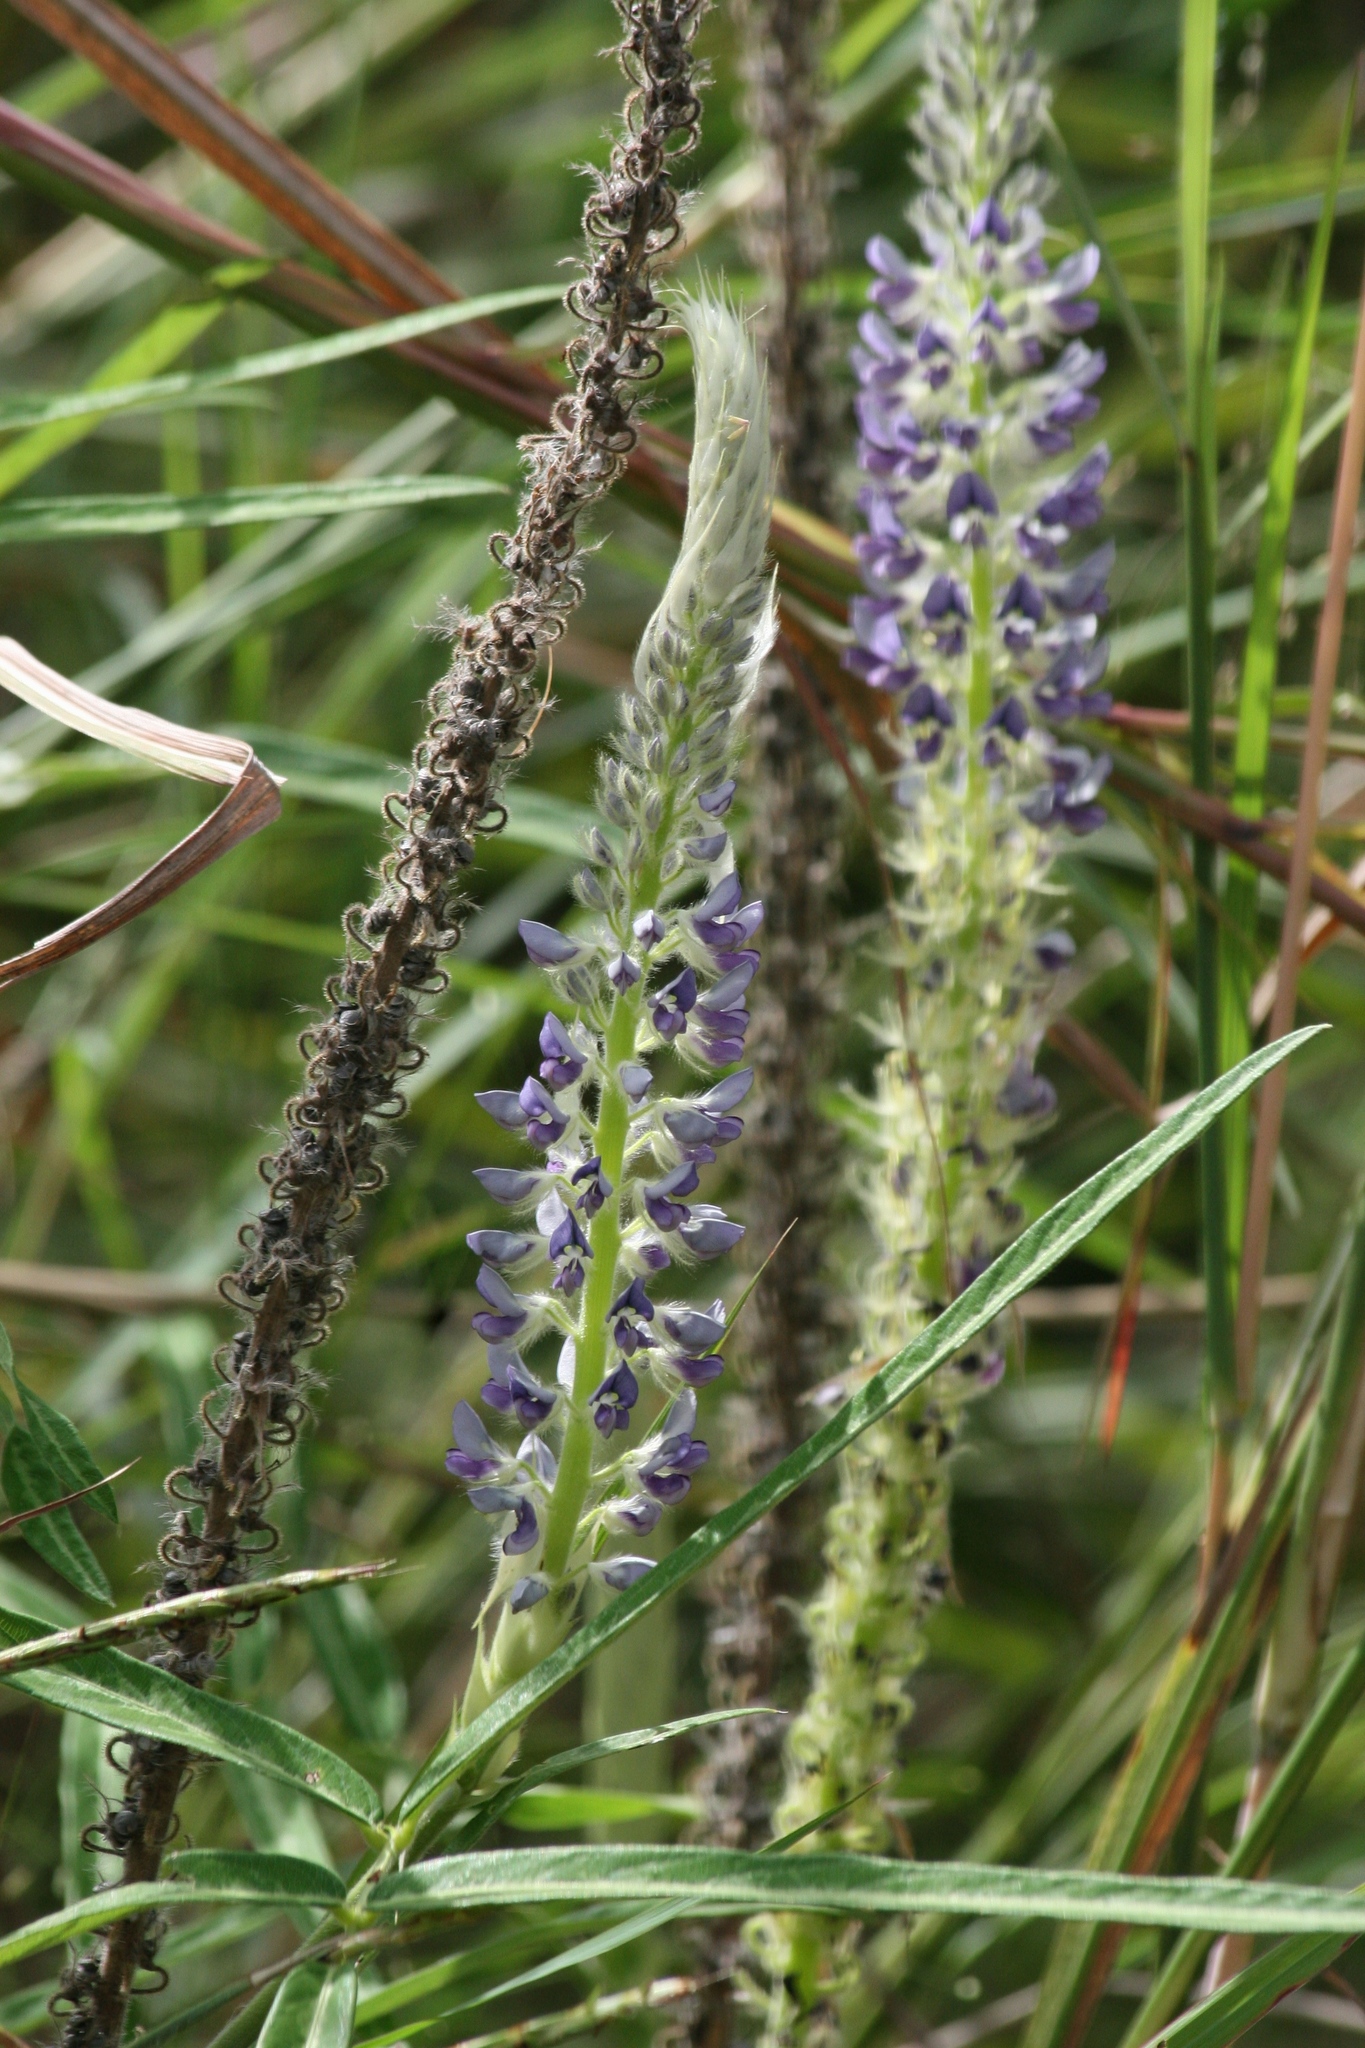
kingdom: Plantae
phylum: Tracheophyta
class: Magnoliopsida
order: Fabales
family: Fabaceae
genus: Uraria
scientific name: Uraria picta
